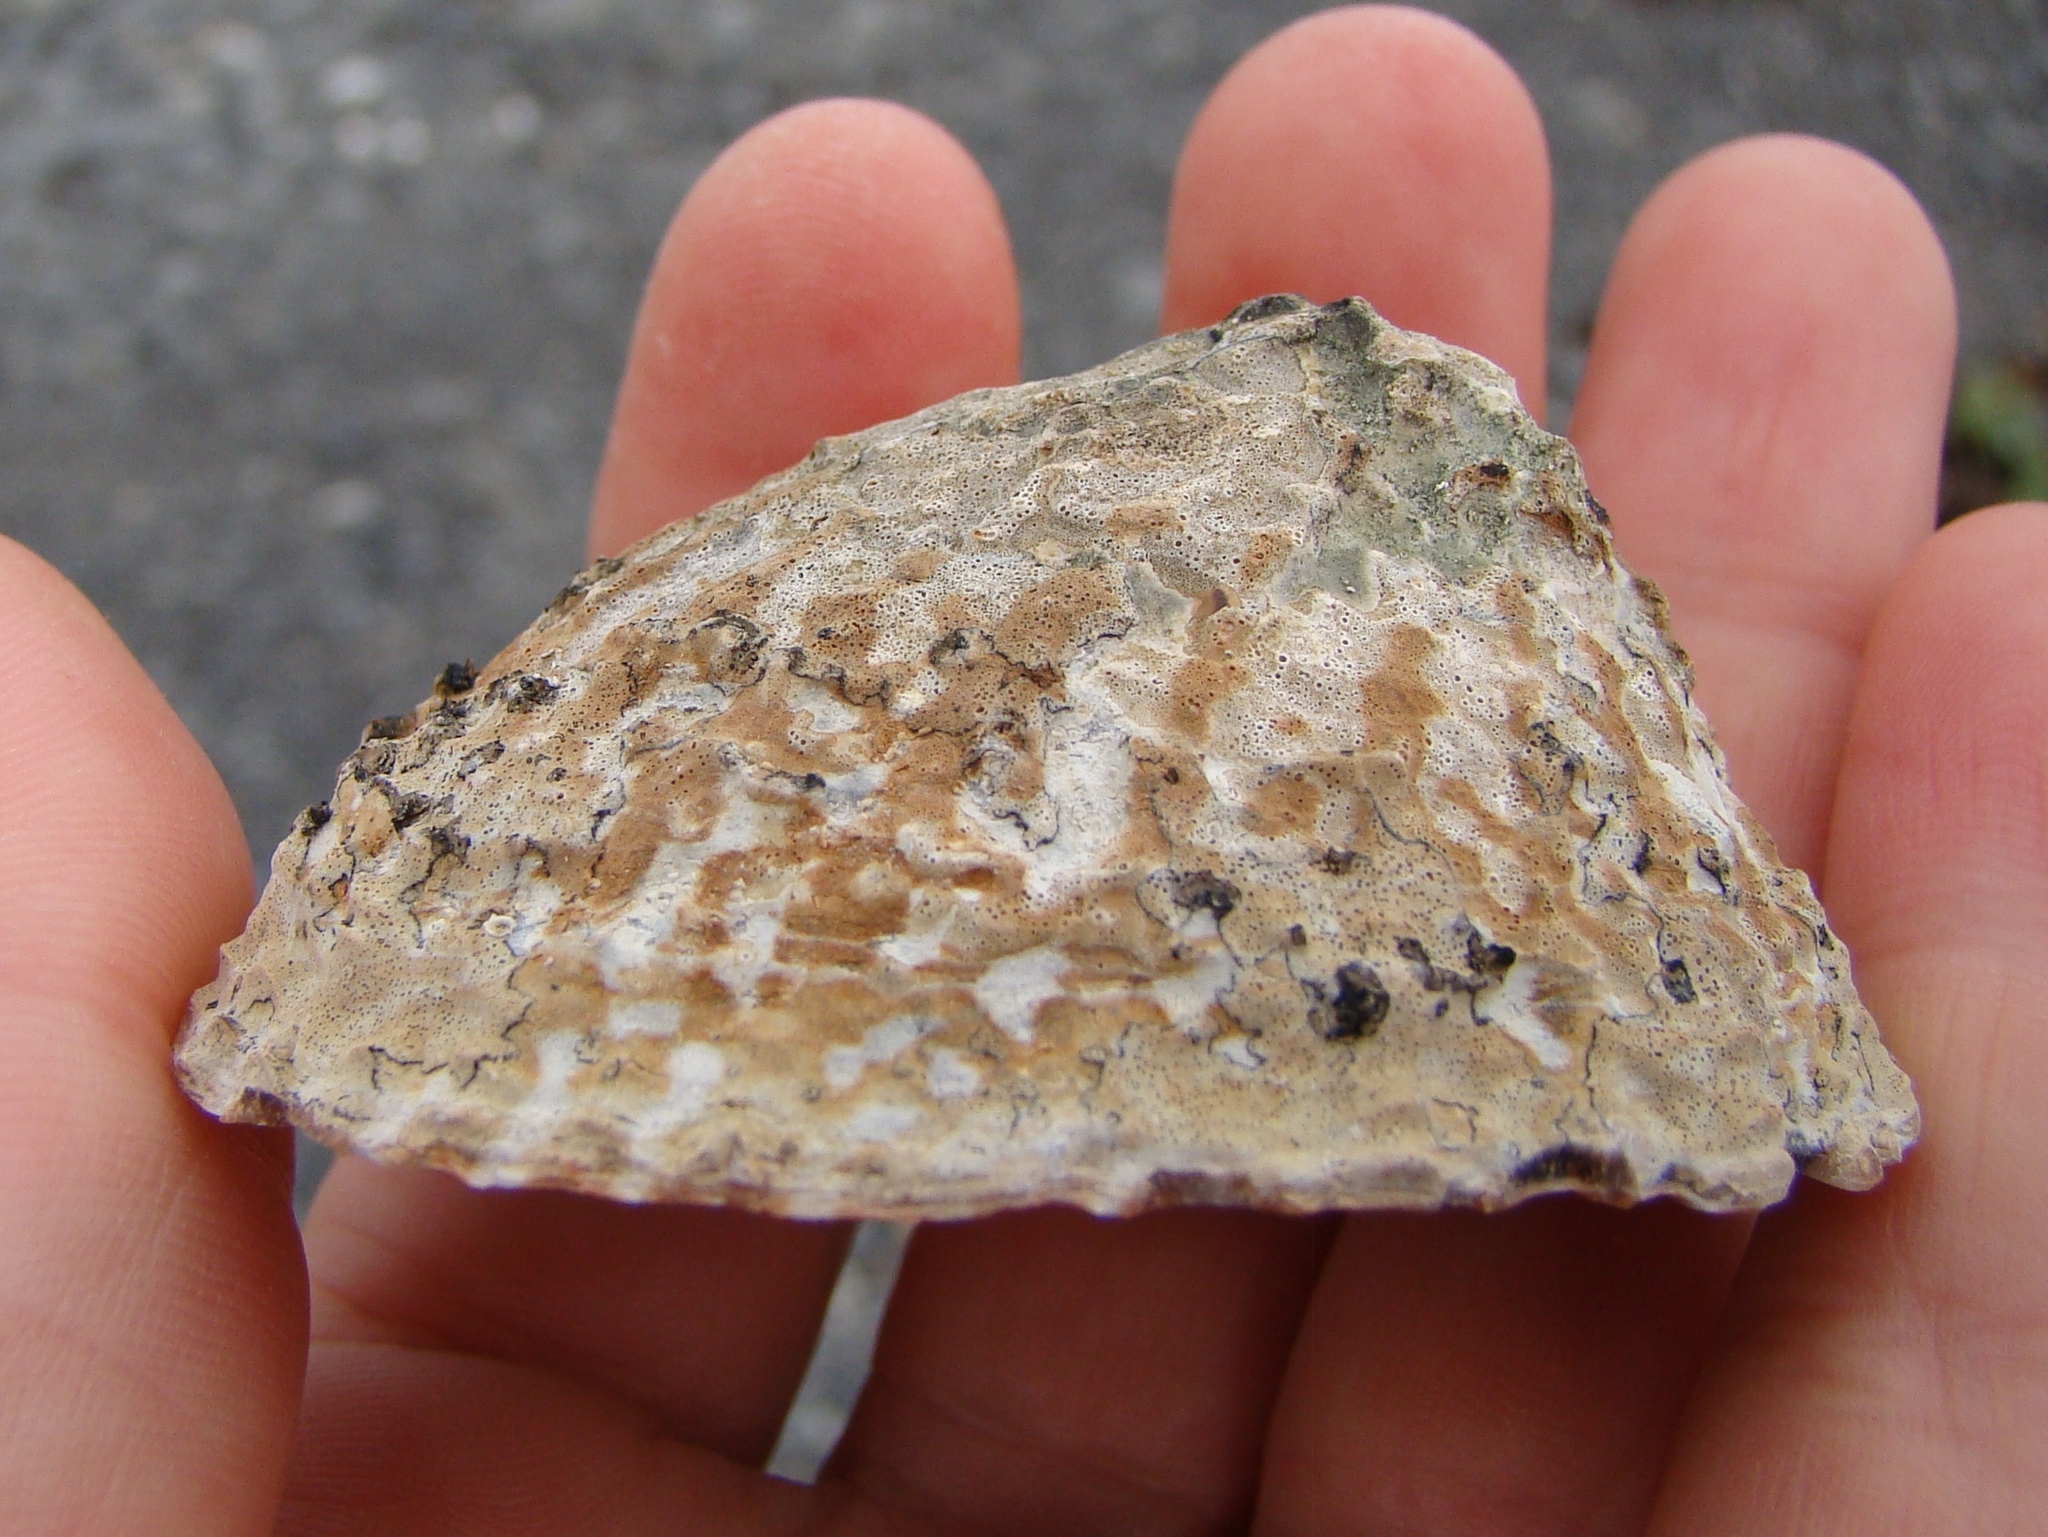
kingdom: Animalia
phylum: Mollusca
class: Gastropoda
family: Nacellidae
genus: Cellana
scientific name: Cellana denticulata
